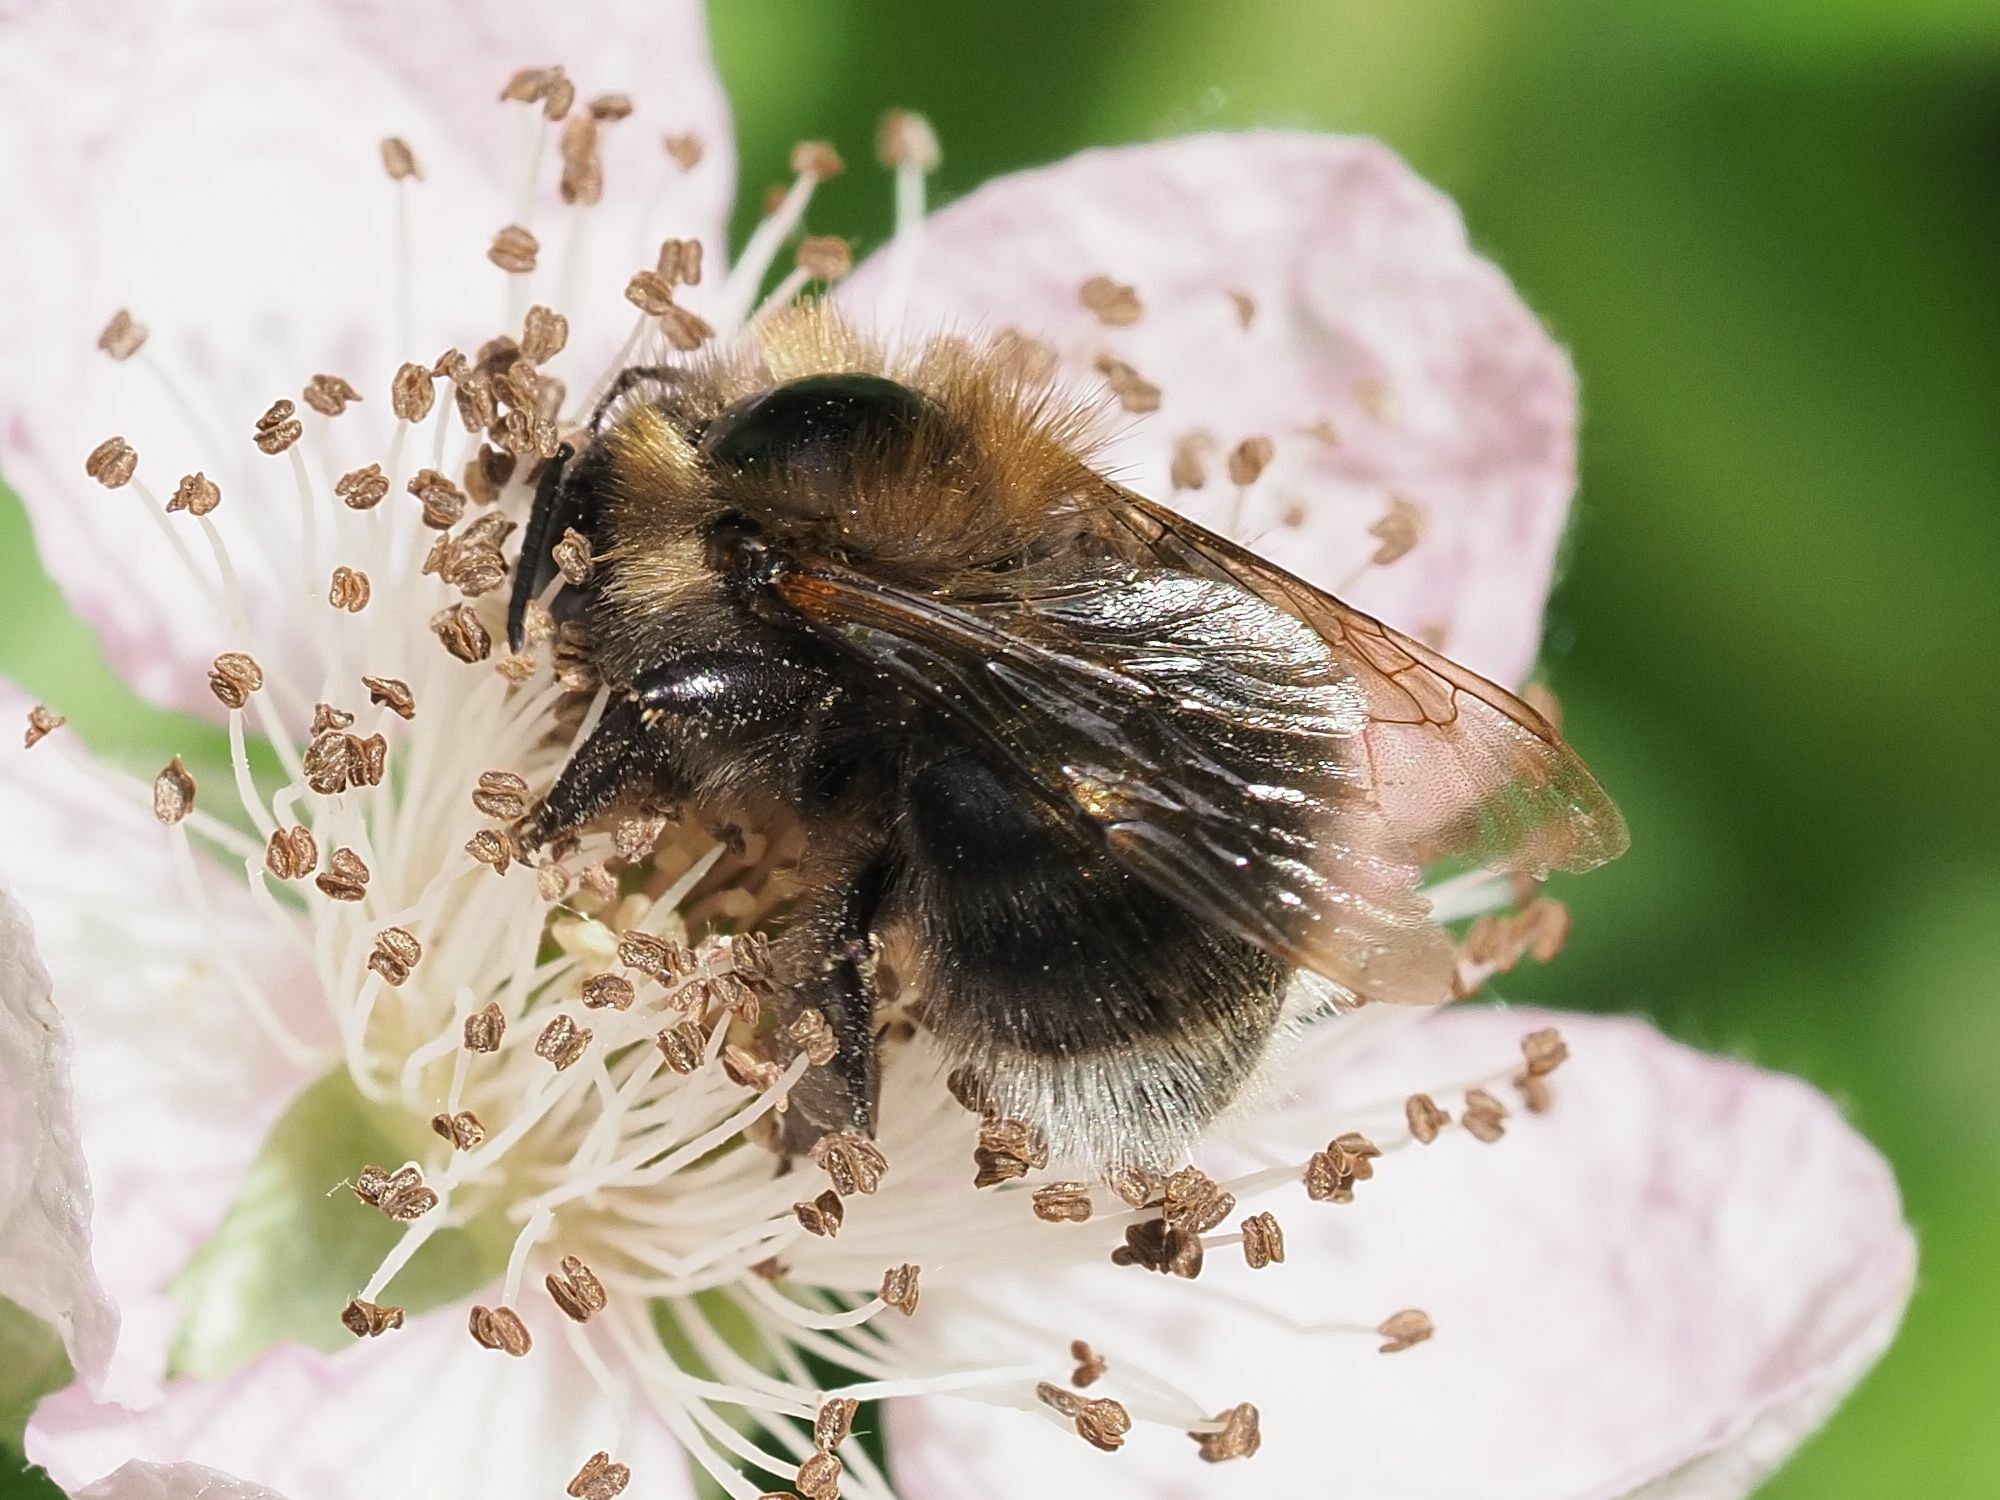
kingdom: Animalia
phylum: Arthropoda
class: Insecta
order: Hymenoptera
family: Apidae
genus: Bombus
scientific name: Bombus hypnorum
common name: New garden bumblebee
